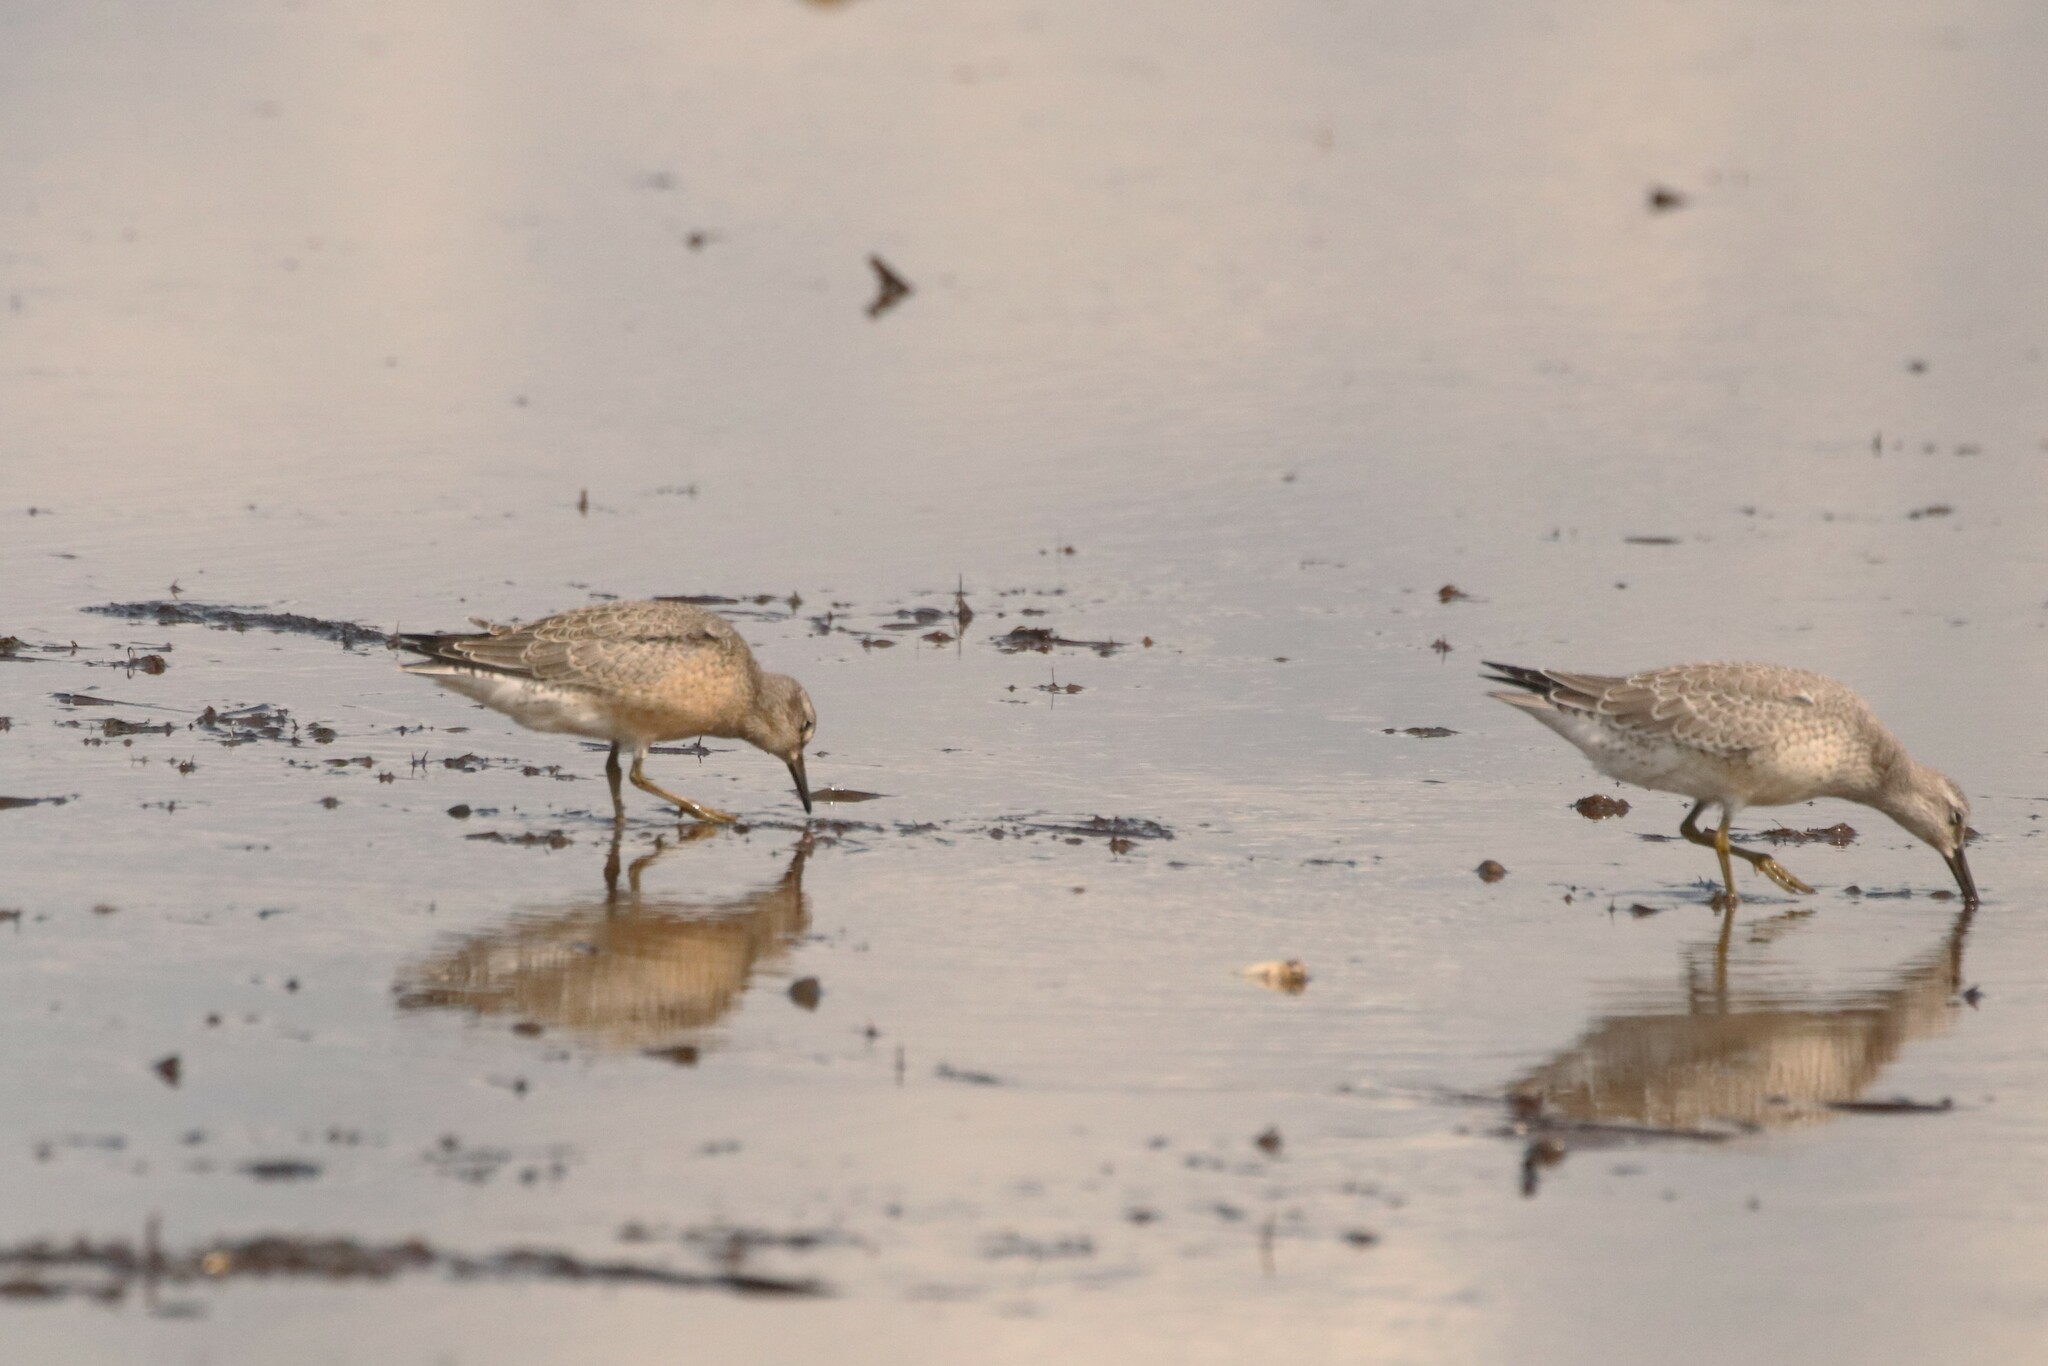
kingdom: Animalia
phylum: Chordata
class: Aves
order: Charadriiformes
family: Scolopacidae
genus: Calidris
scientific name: Calidris canutus
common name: Red knot
